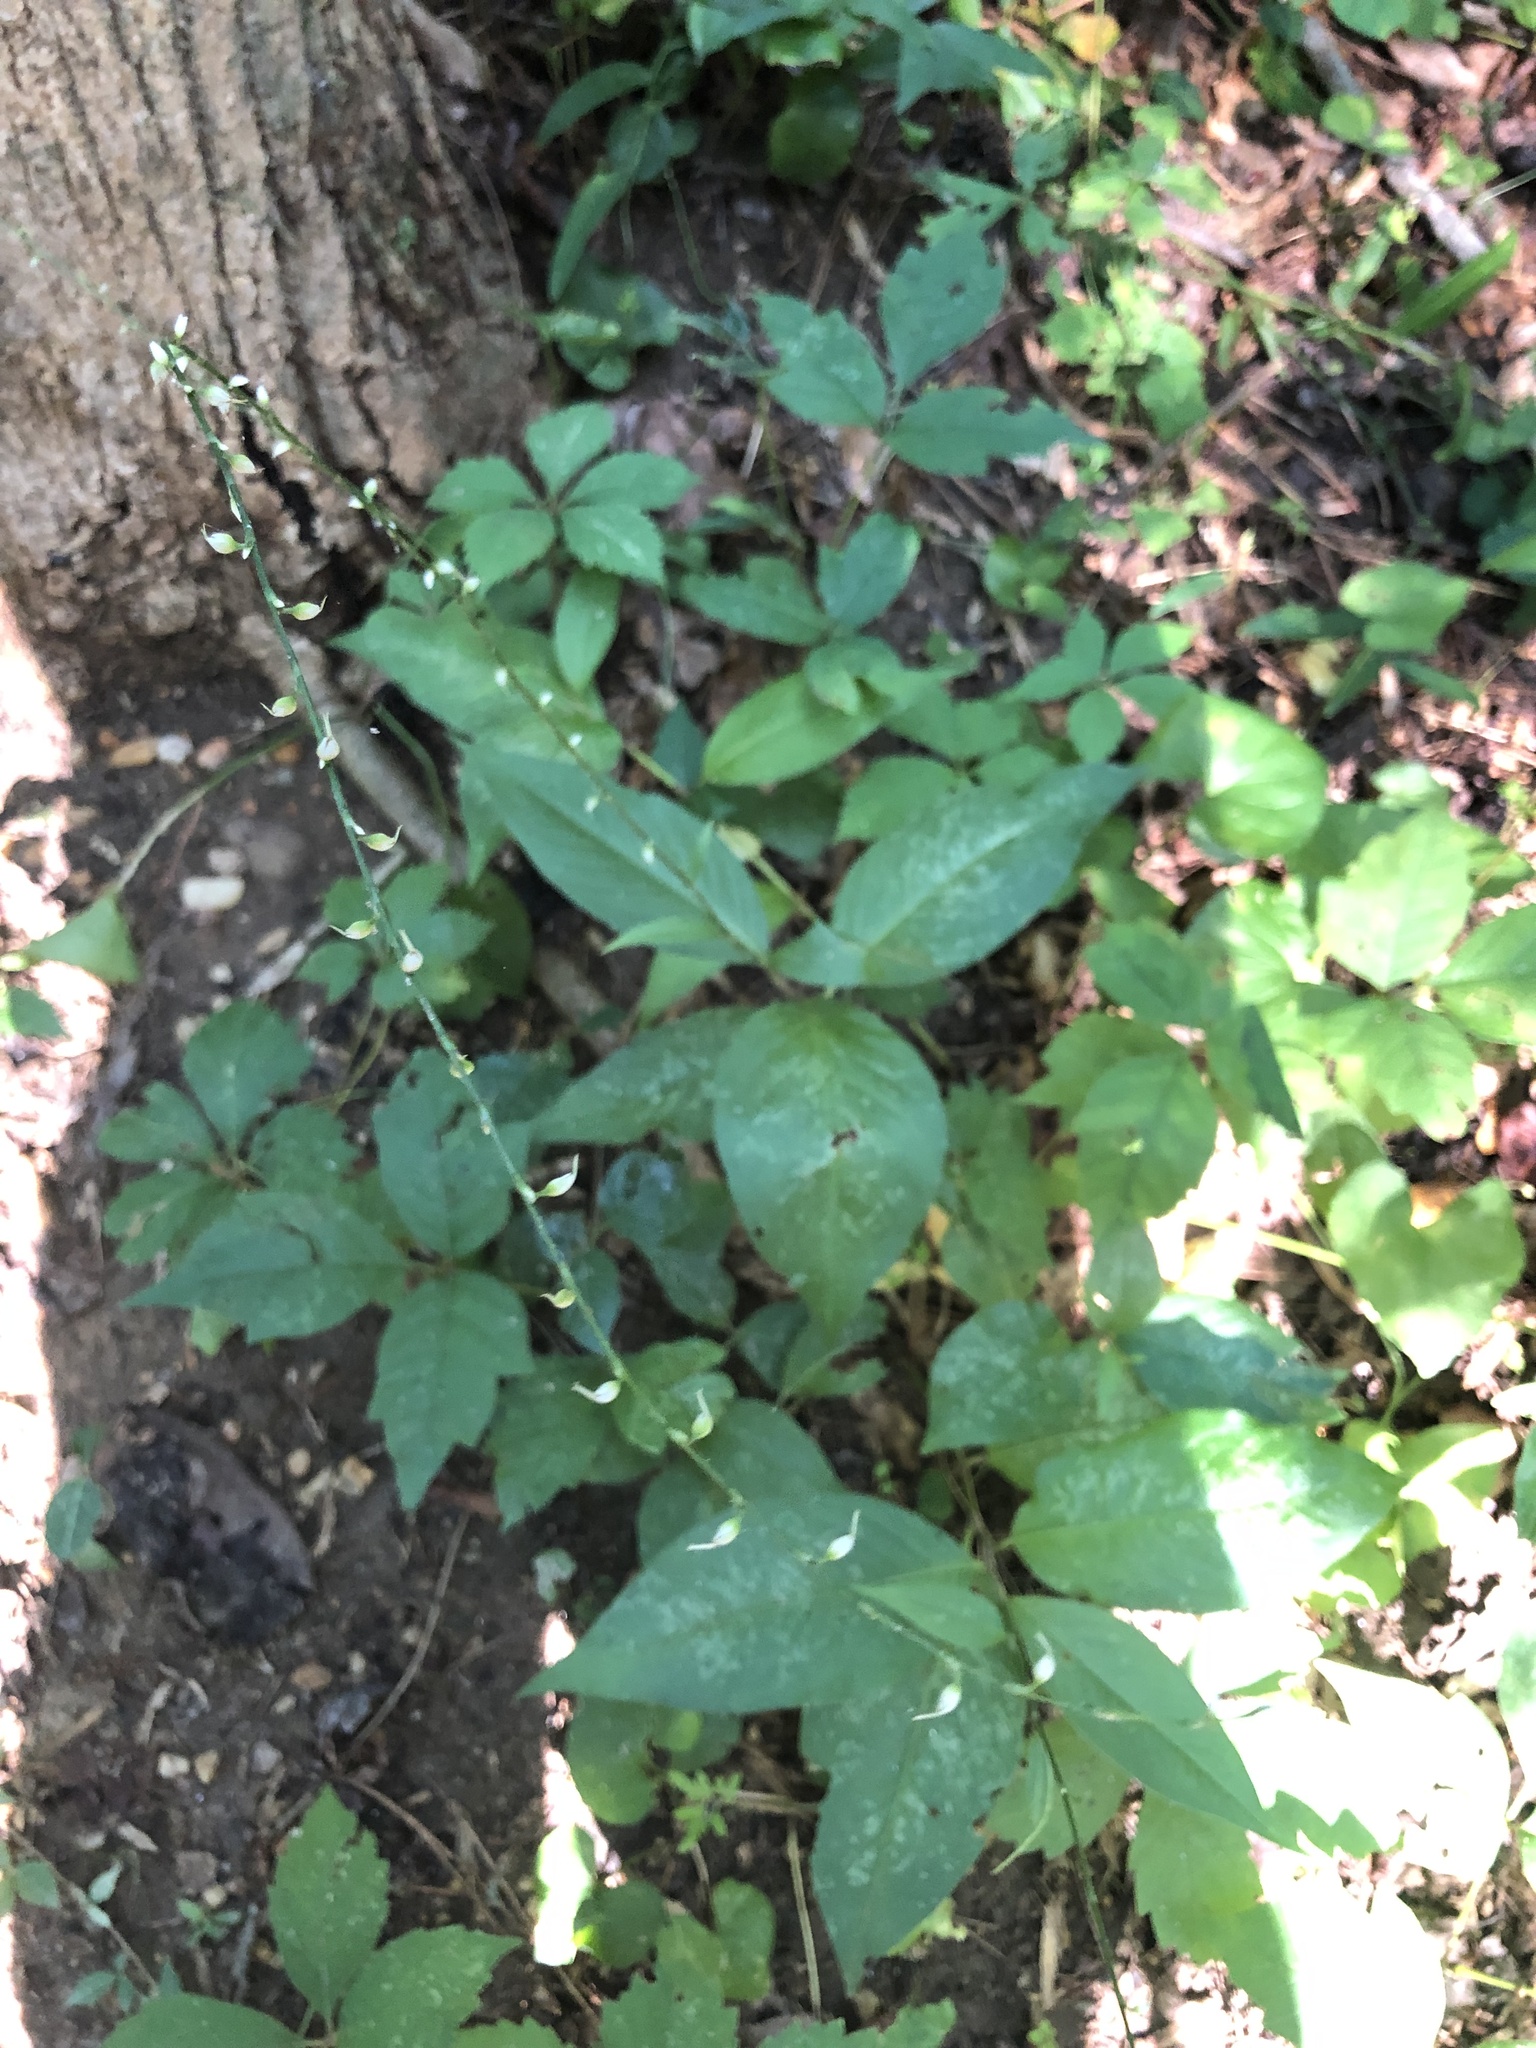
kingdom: Plantae
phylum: Tracheophyta
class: Magnoliopsida
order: Caryophyllales
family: Polygonaceae
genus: Persicaria
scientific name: Persicaria virginiana
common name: Jumpseed
